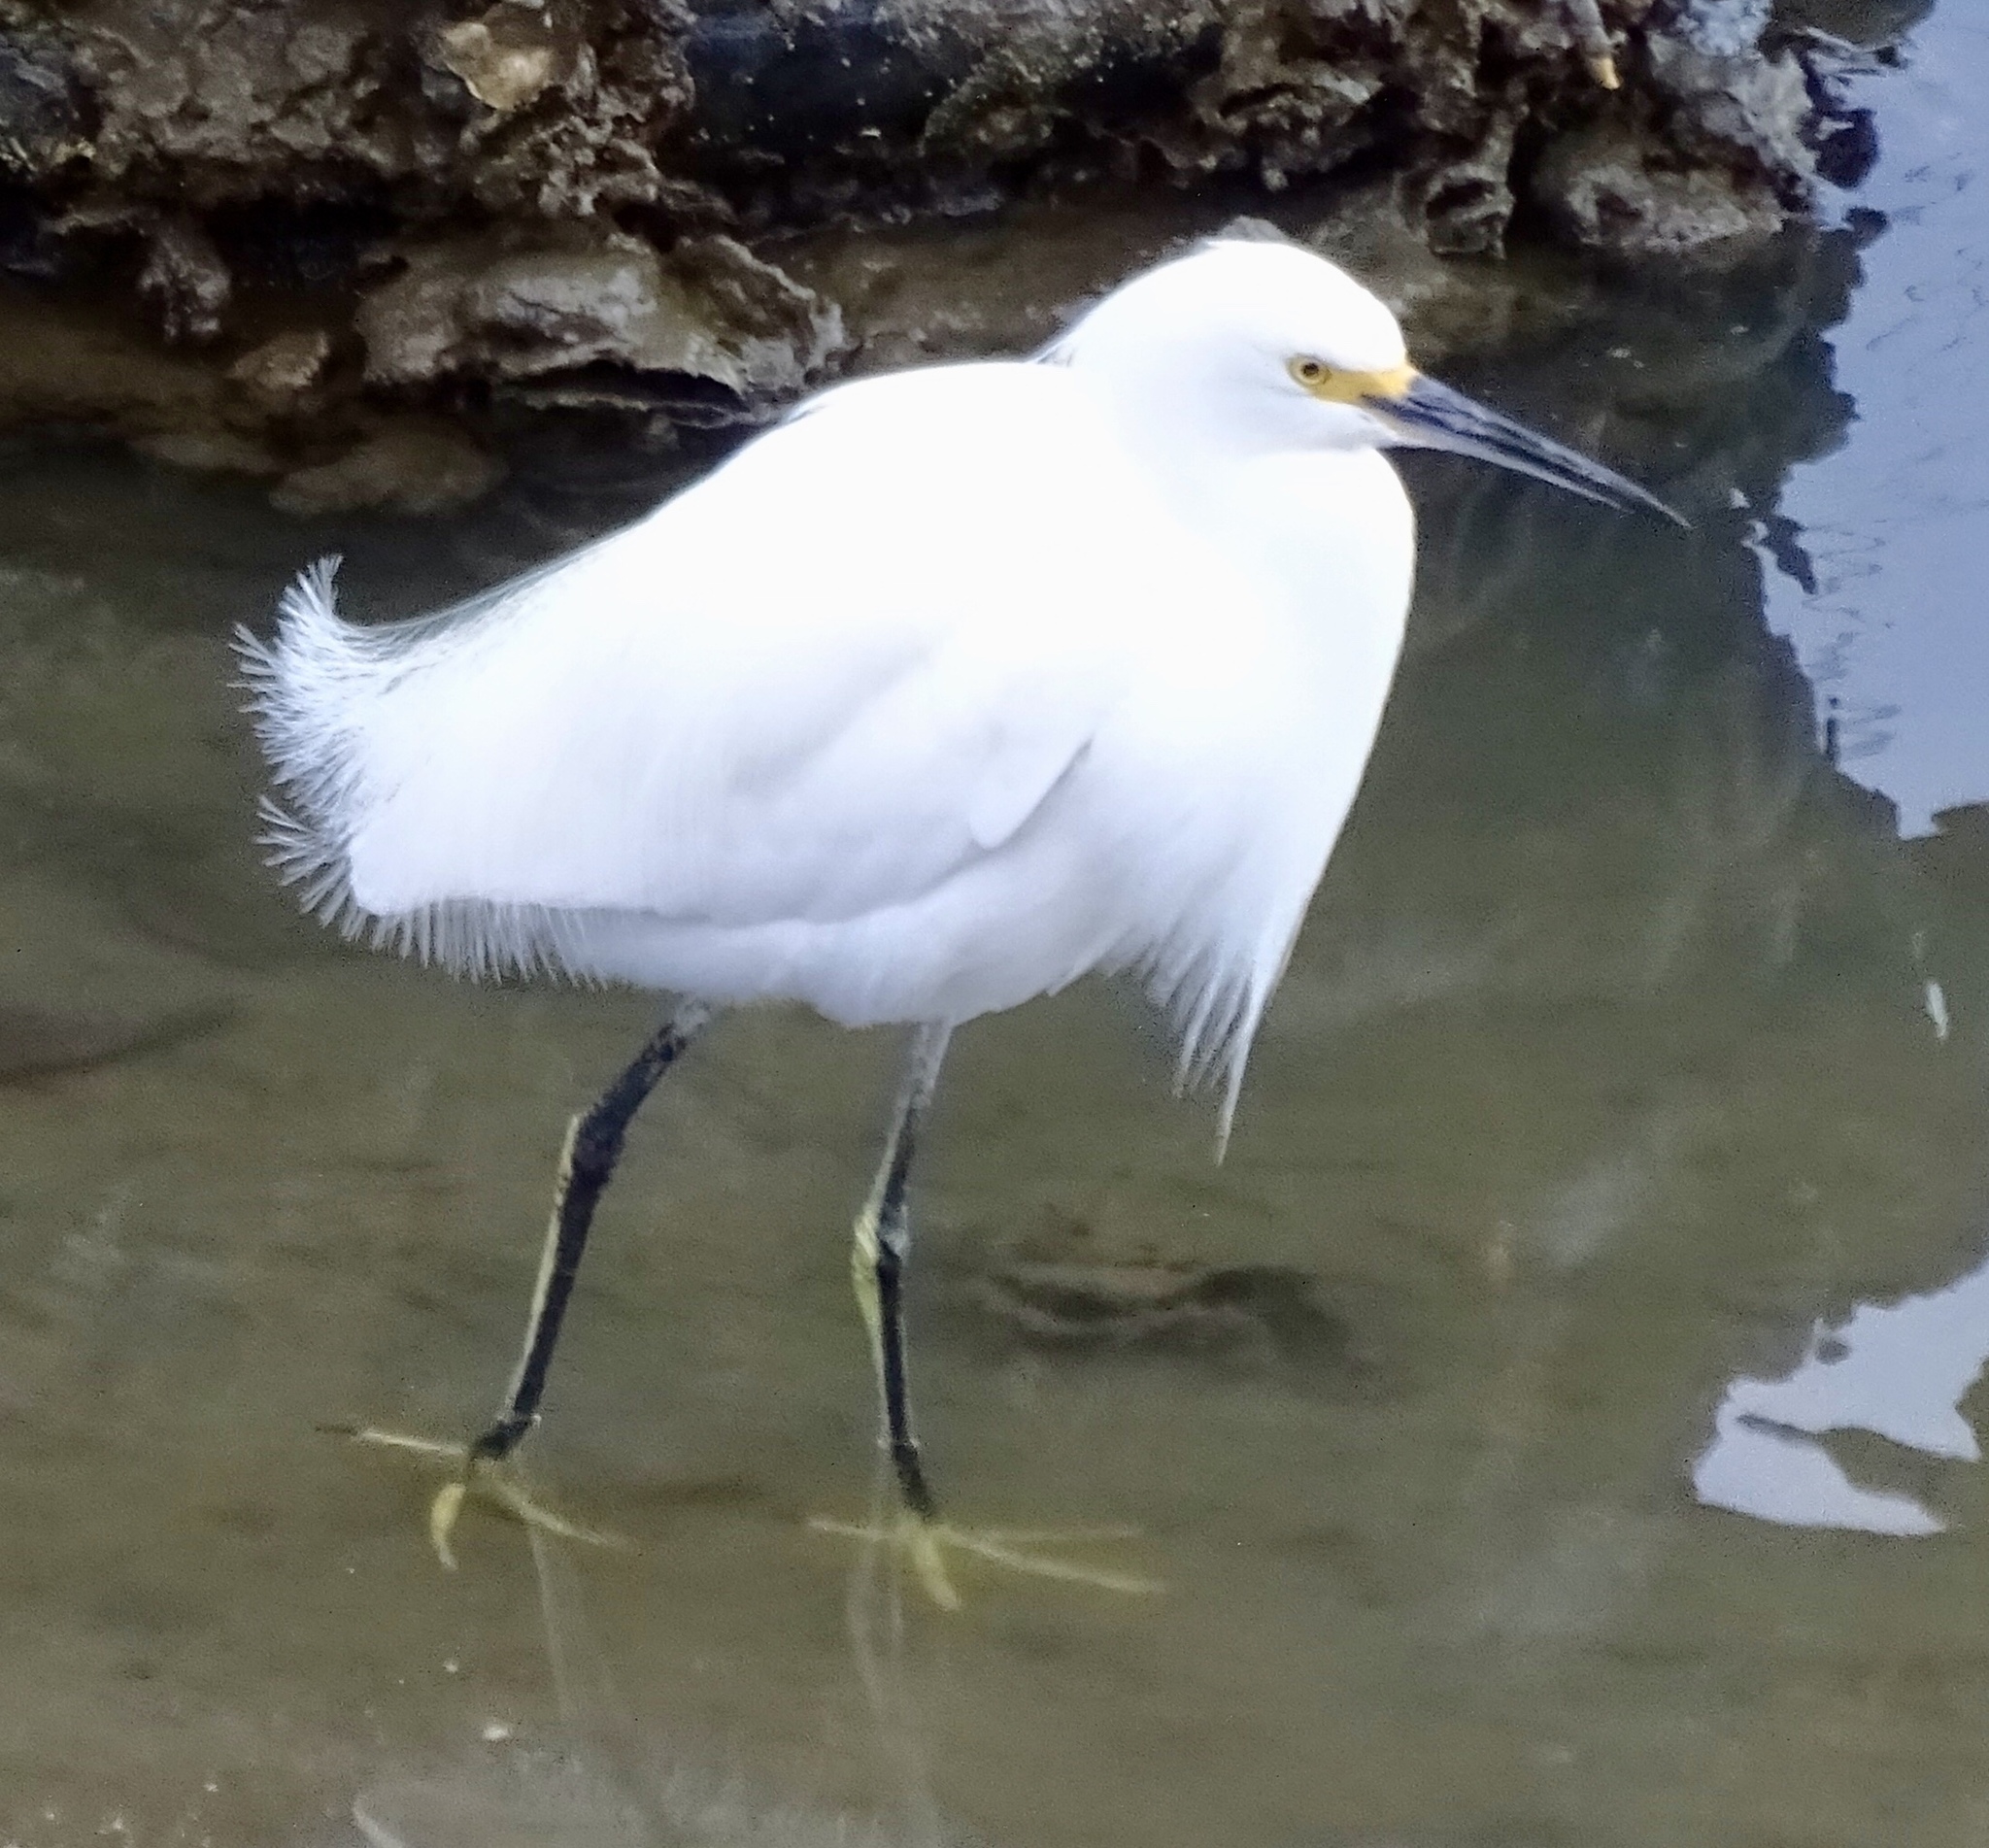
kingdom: Animalia
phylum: Chordata
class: Aves
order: Pelecaniformes
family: Ardeidae
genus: Egretta
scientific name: Egretta thula
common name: Snowy egret
